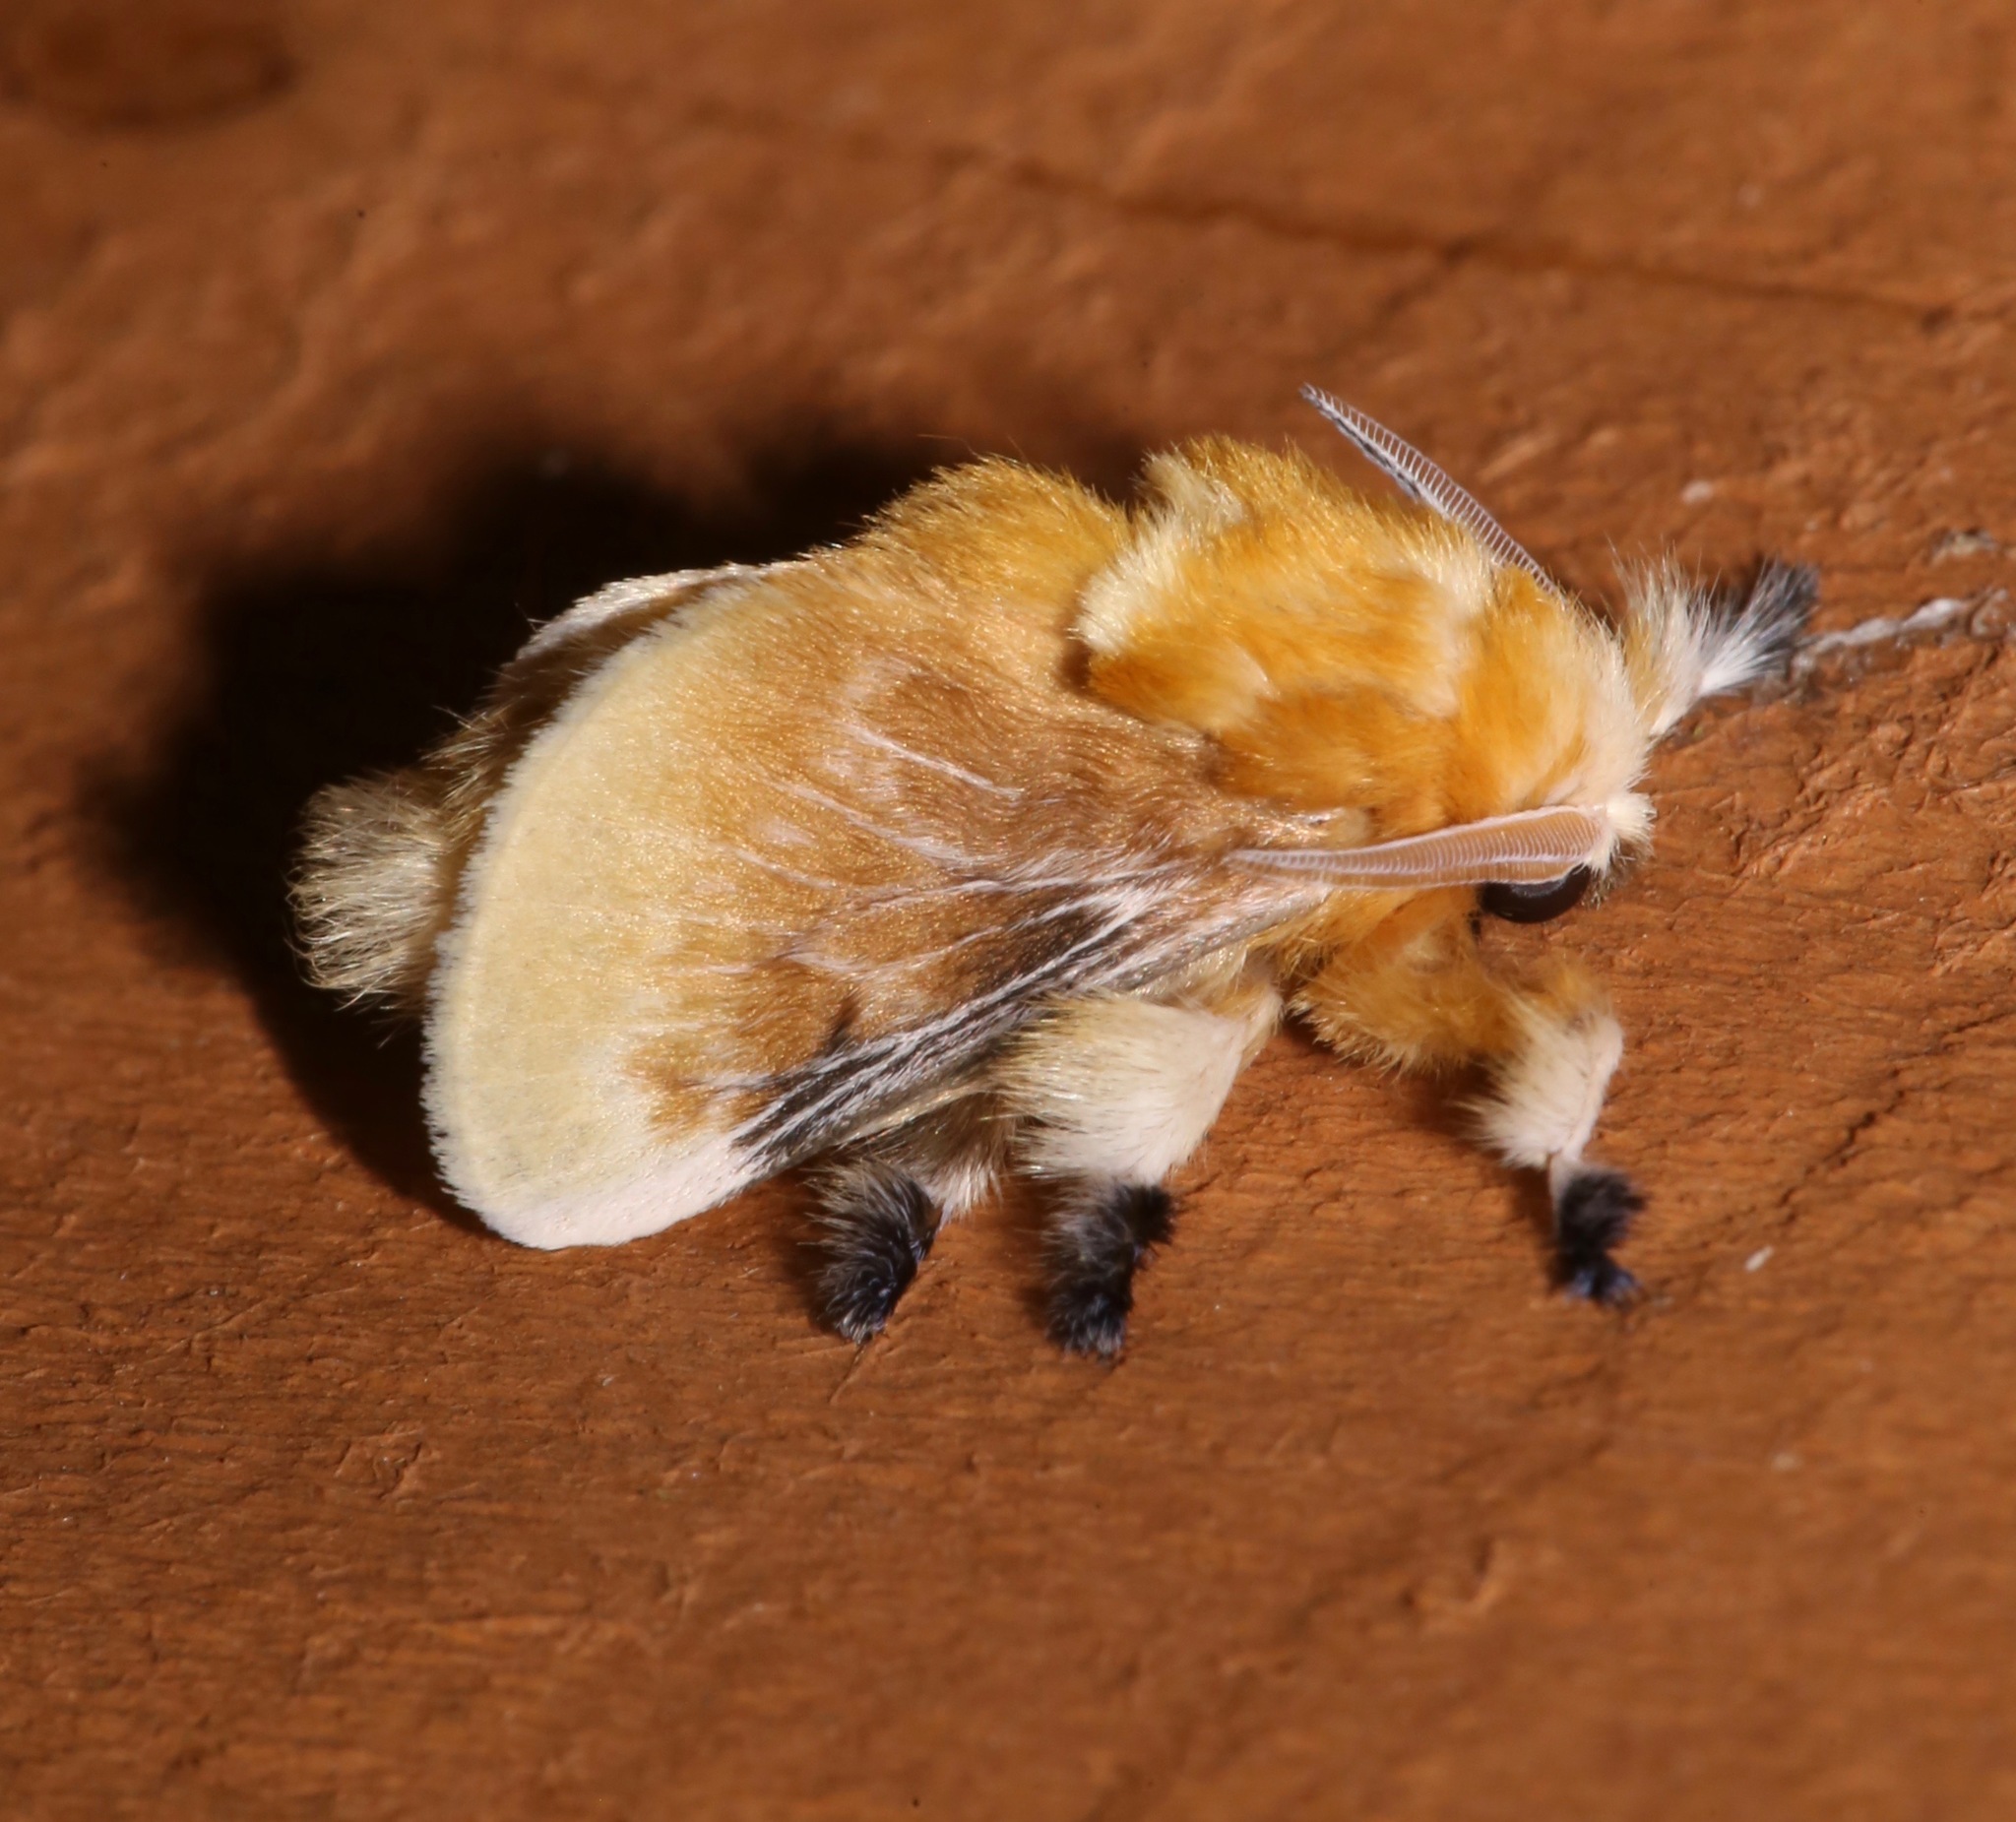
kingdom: Animalia
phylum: Arthropoda
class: Insecta
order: Lepidoptera
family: Megalopygidae
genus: Megalopyge
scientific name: Megalopyge opercularis
